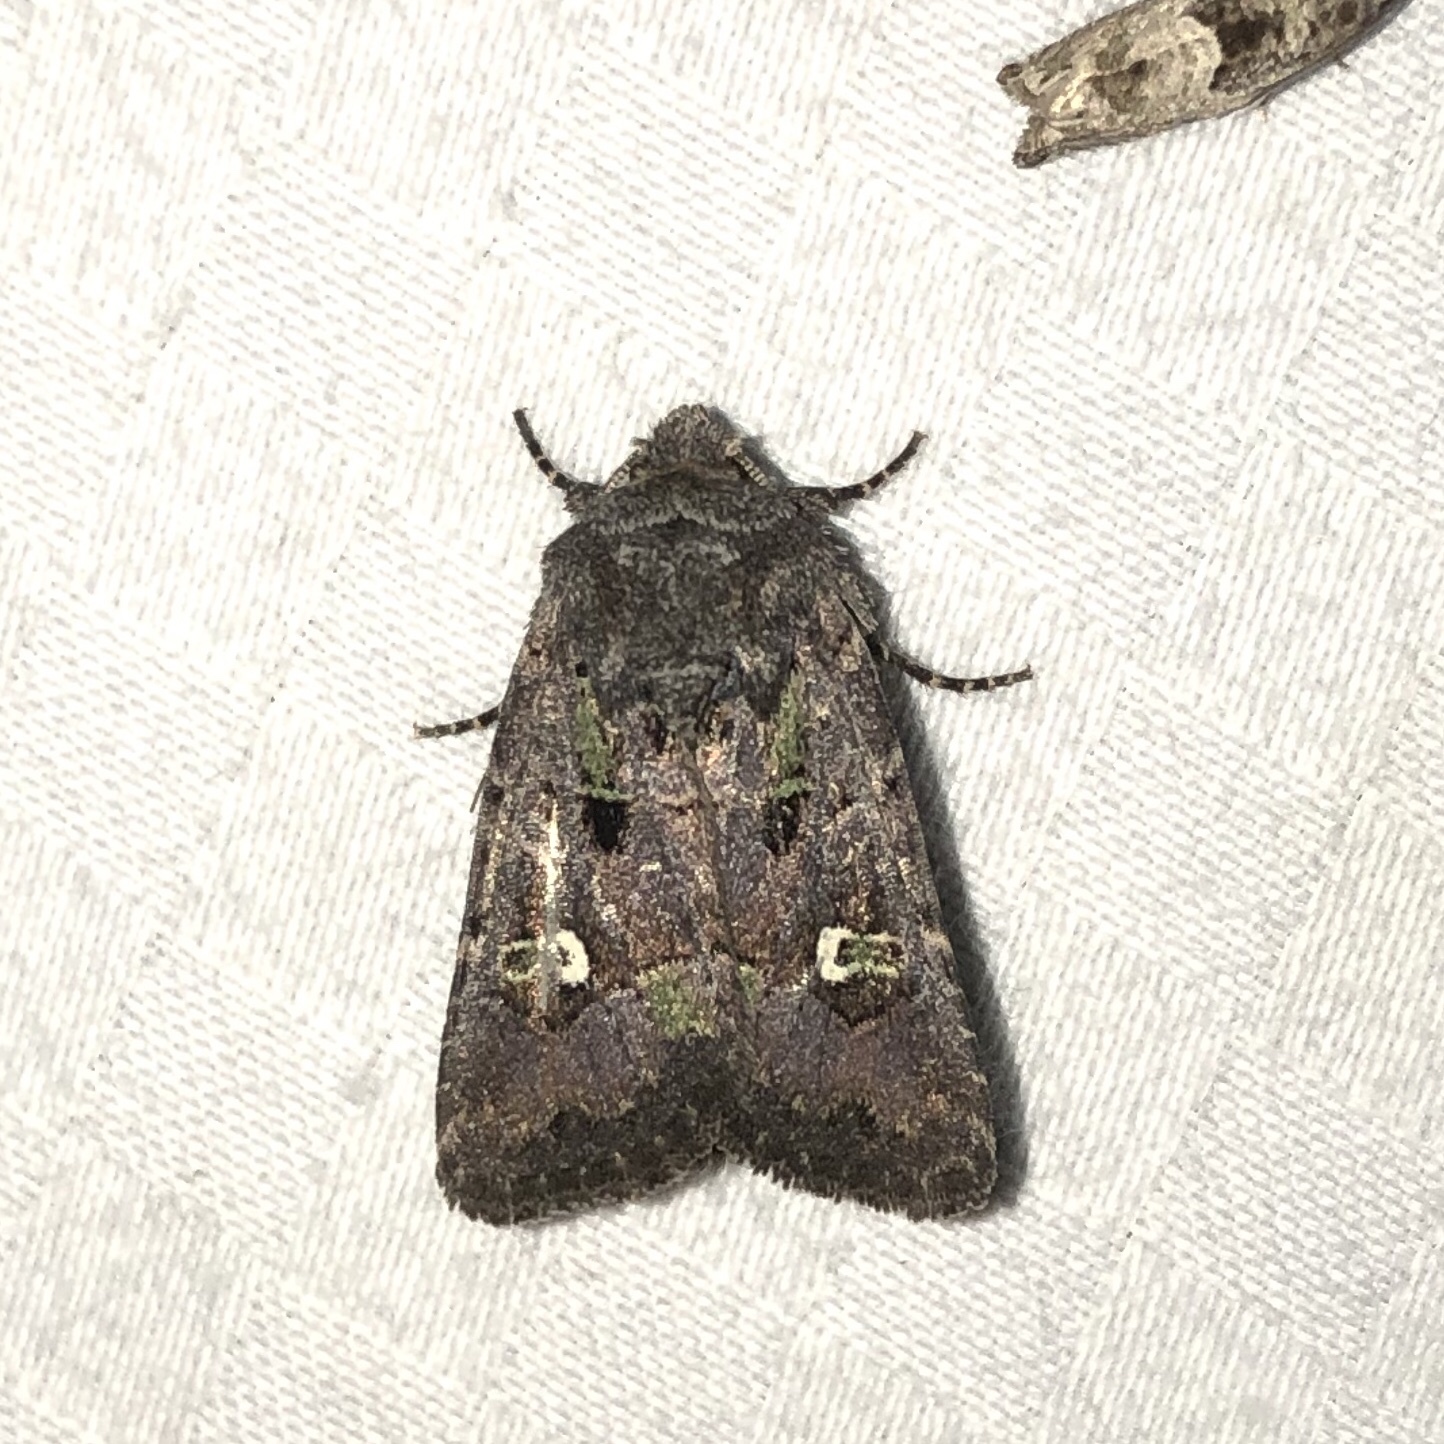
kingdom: Animalia
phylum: Arthropoda
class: Insecta
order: Lepidoptera
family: Noctuidae
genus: Lacinipolia
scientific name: Lacinipolia renigera
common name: Kidney-spotted minor
